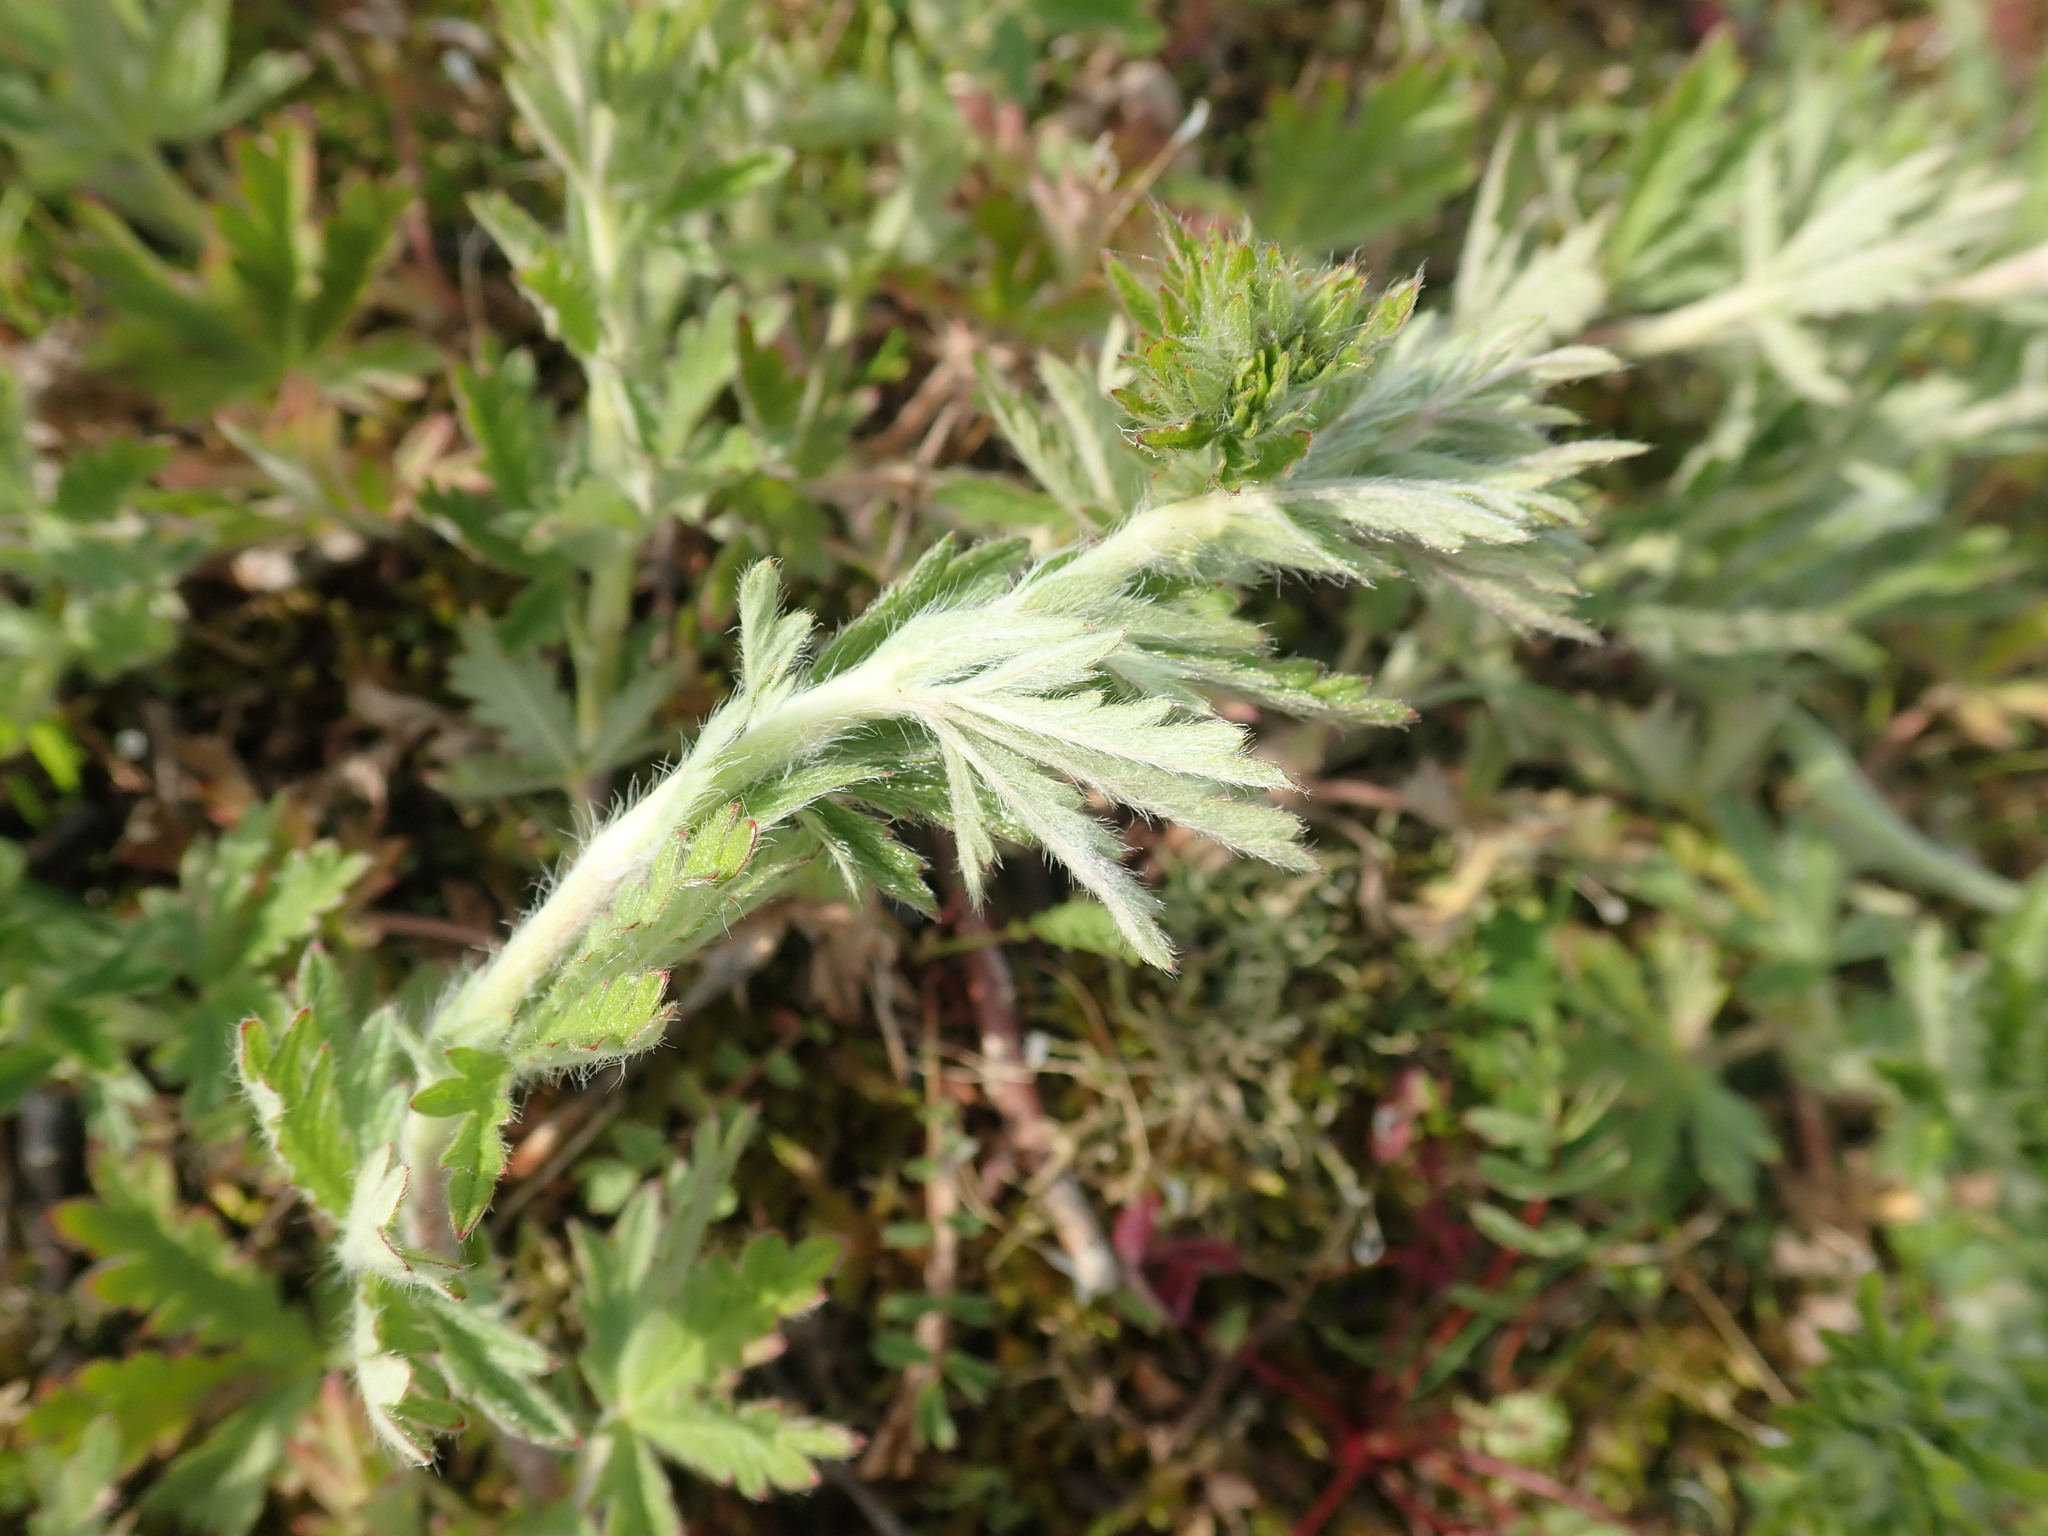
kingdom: Plantae
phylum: Tracheophyta
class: Magnoliopsida
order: Rosales
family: Rosaceae
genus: Potentilla
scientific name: Potentilla argentea
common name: Hoary cinquefoil
